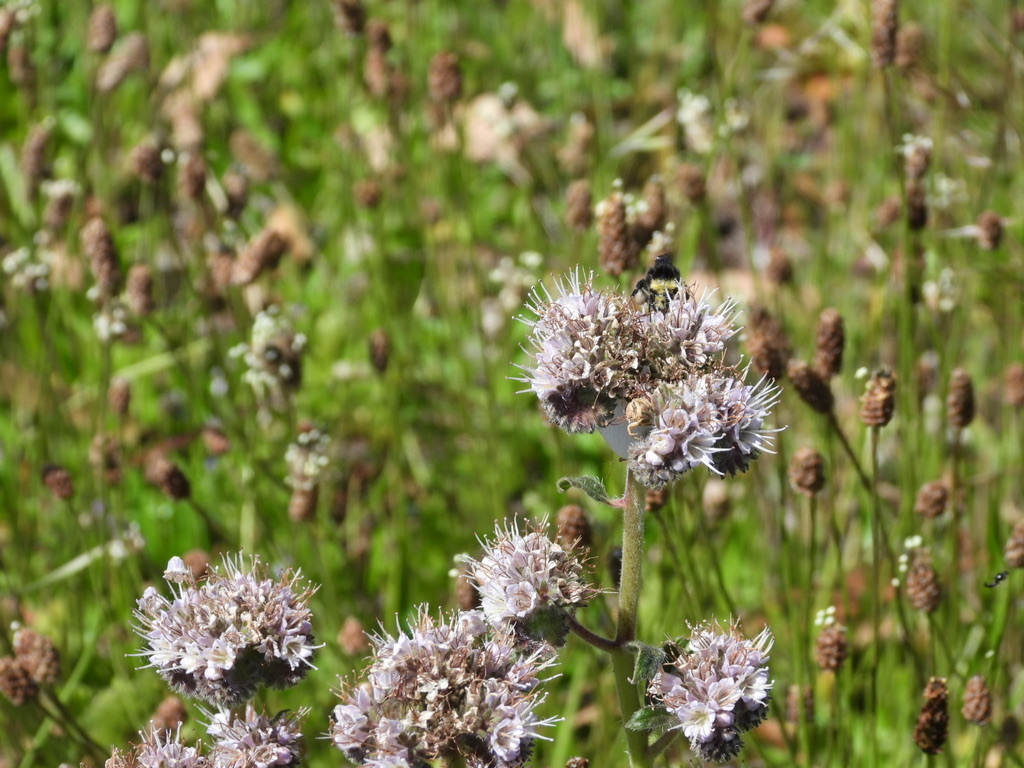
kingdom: Plantae
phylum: Tracheophyta
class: Magnoliopsida
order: Boraginales
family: Hydrophyllaceae
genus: Phacelia
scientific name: Phacelia californica
